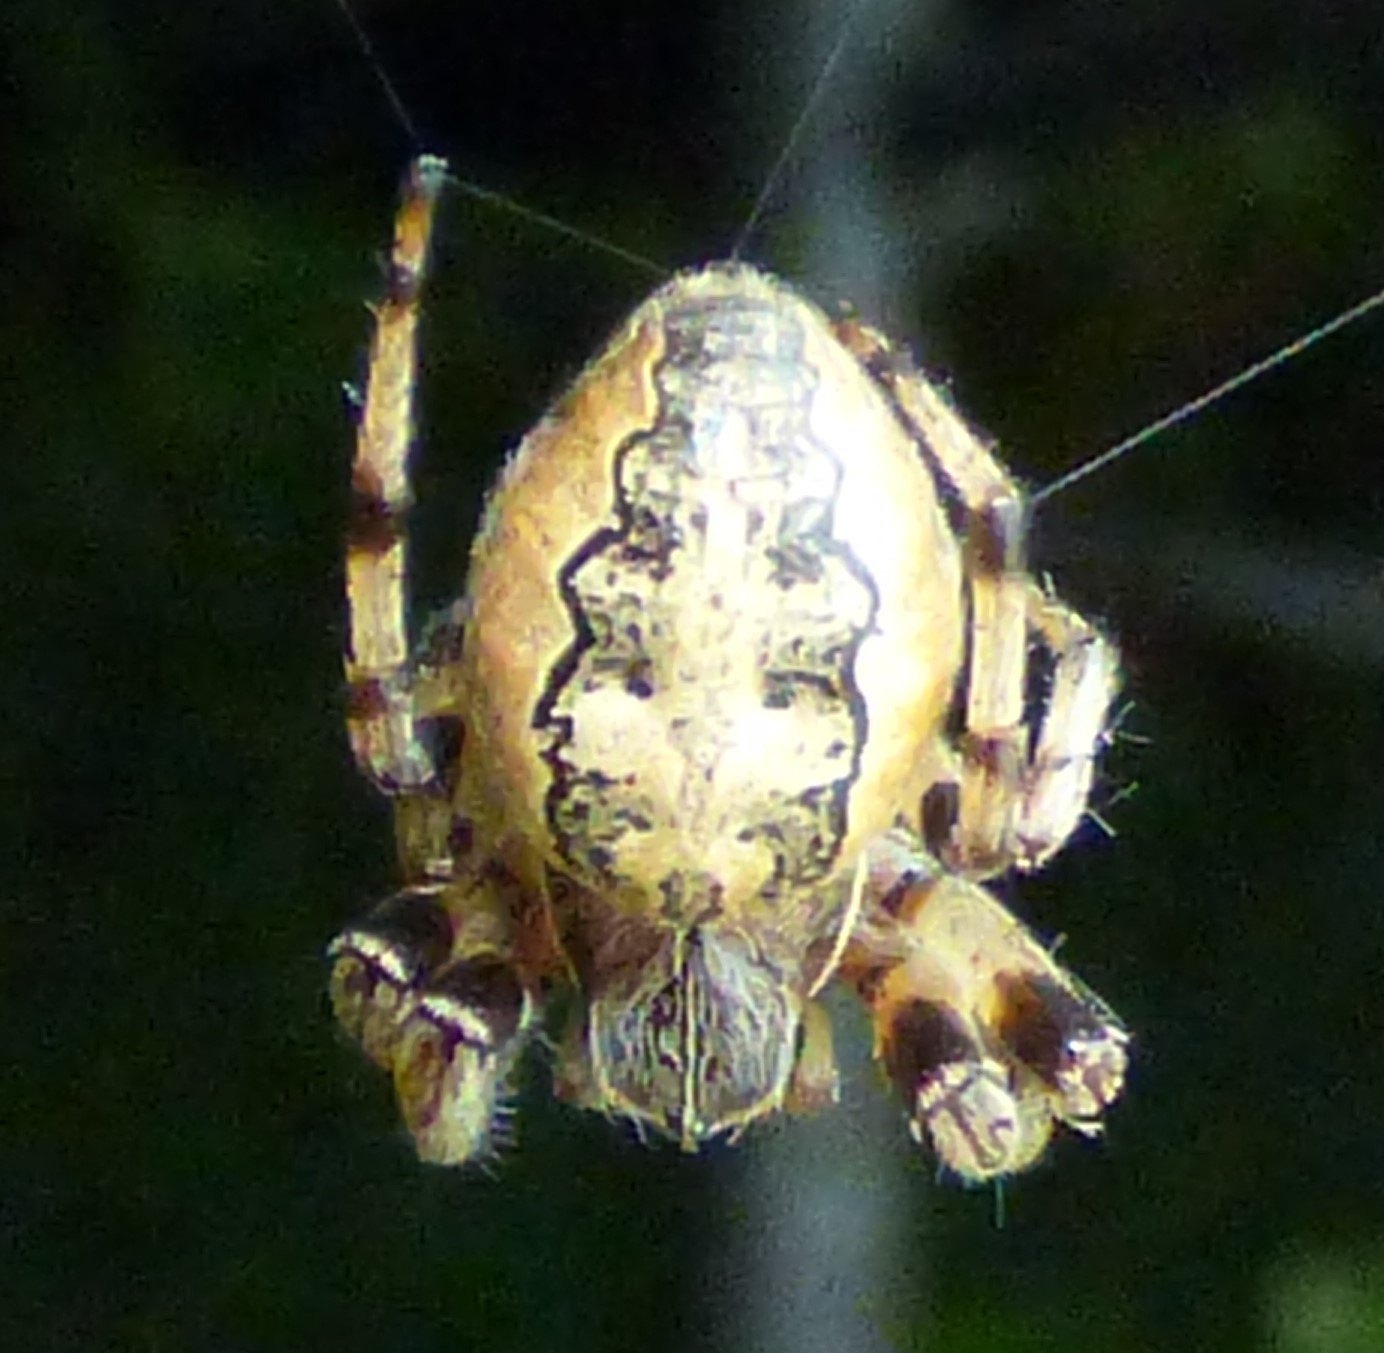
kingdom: Animalia
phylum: Arthropoda
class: Arachnida
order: Araneae
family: Araneidae
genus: Larinioides
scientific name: Larinioides cornutus
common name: Furrow orbweaver
